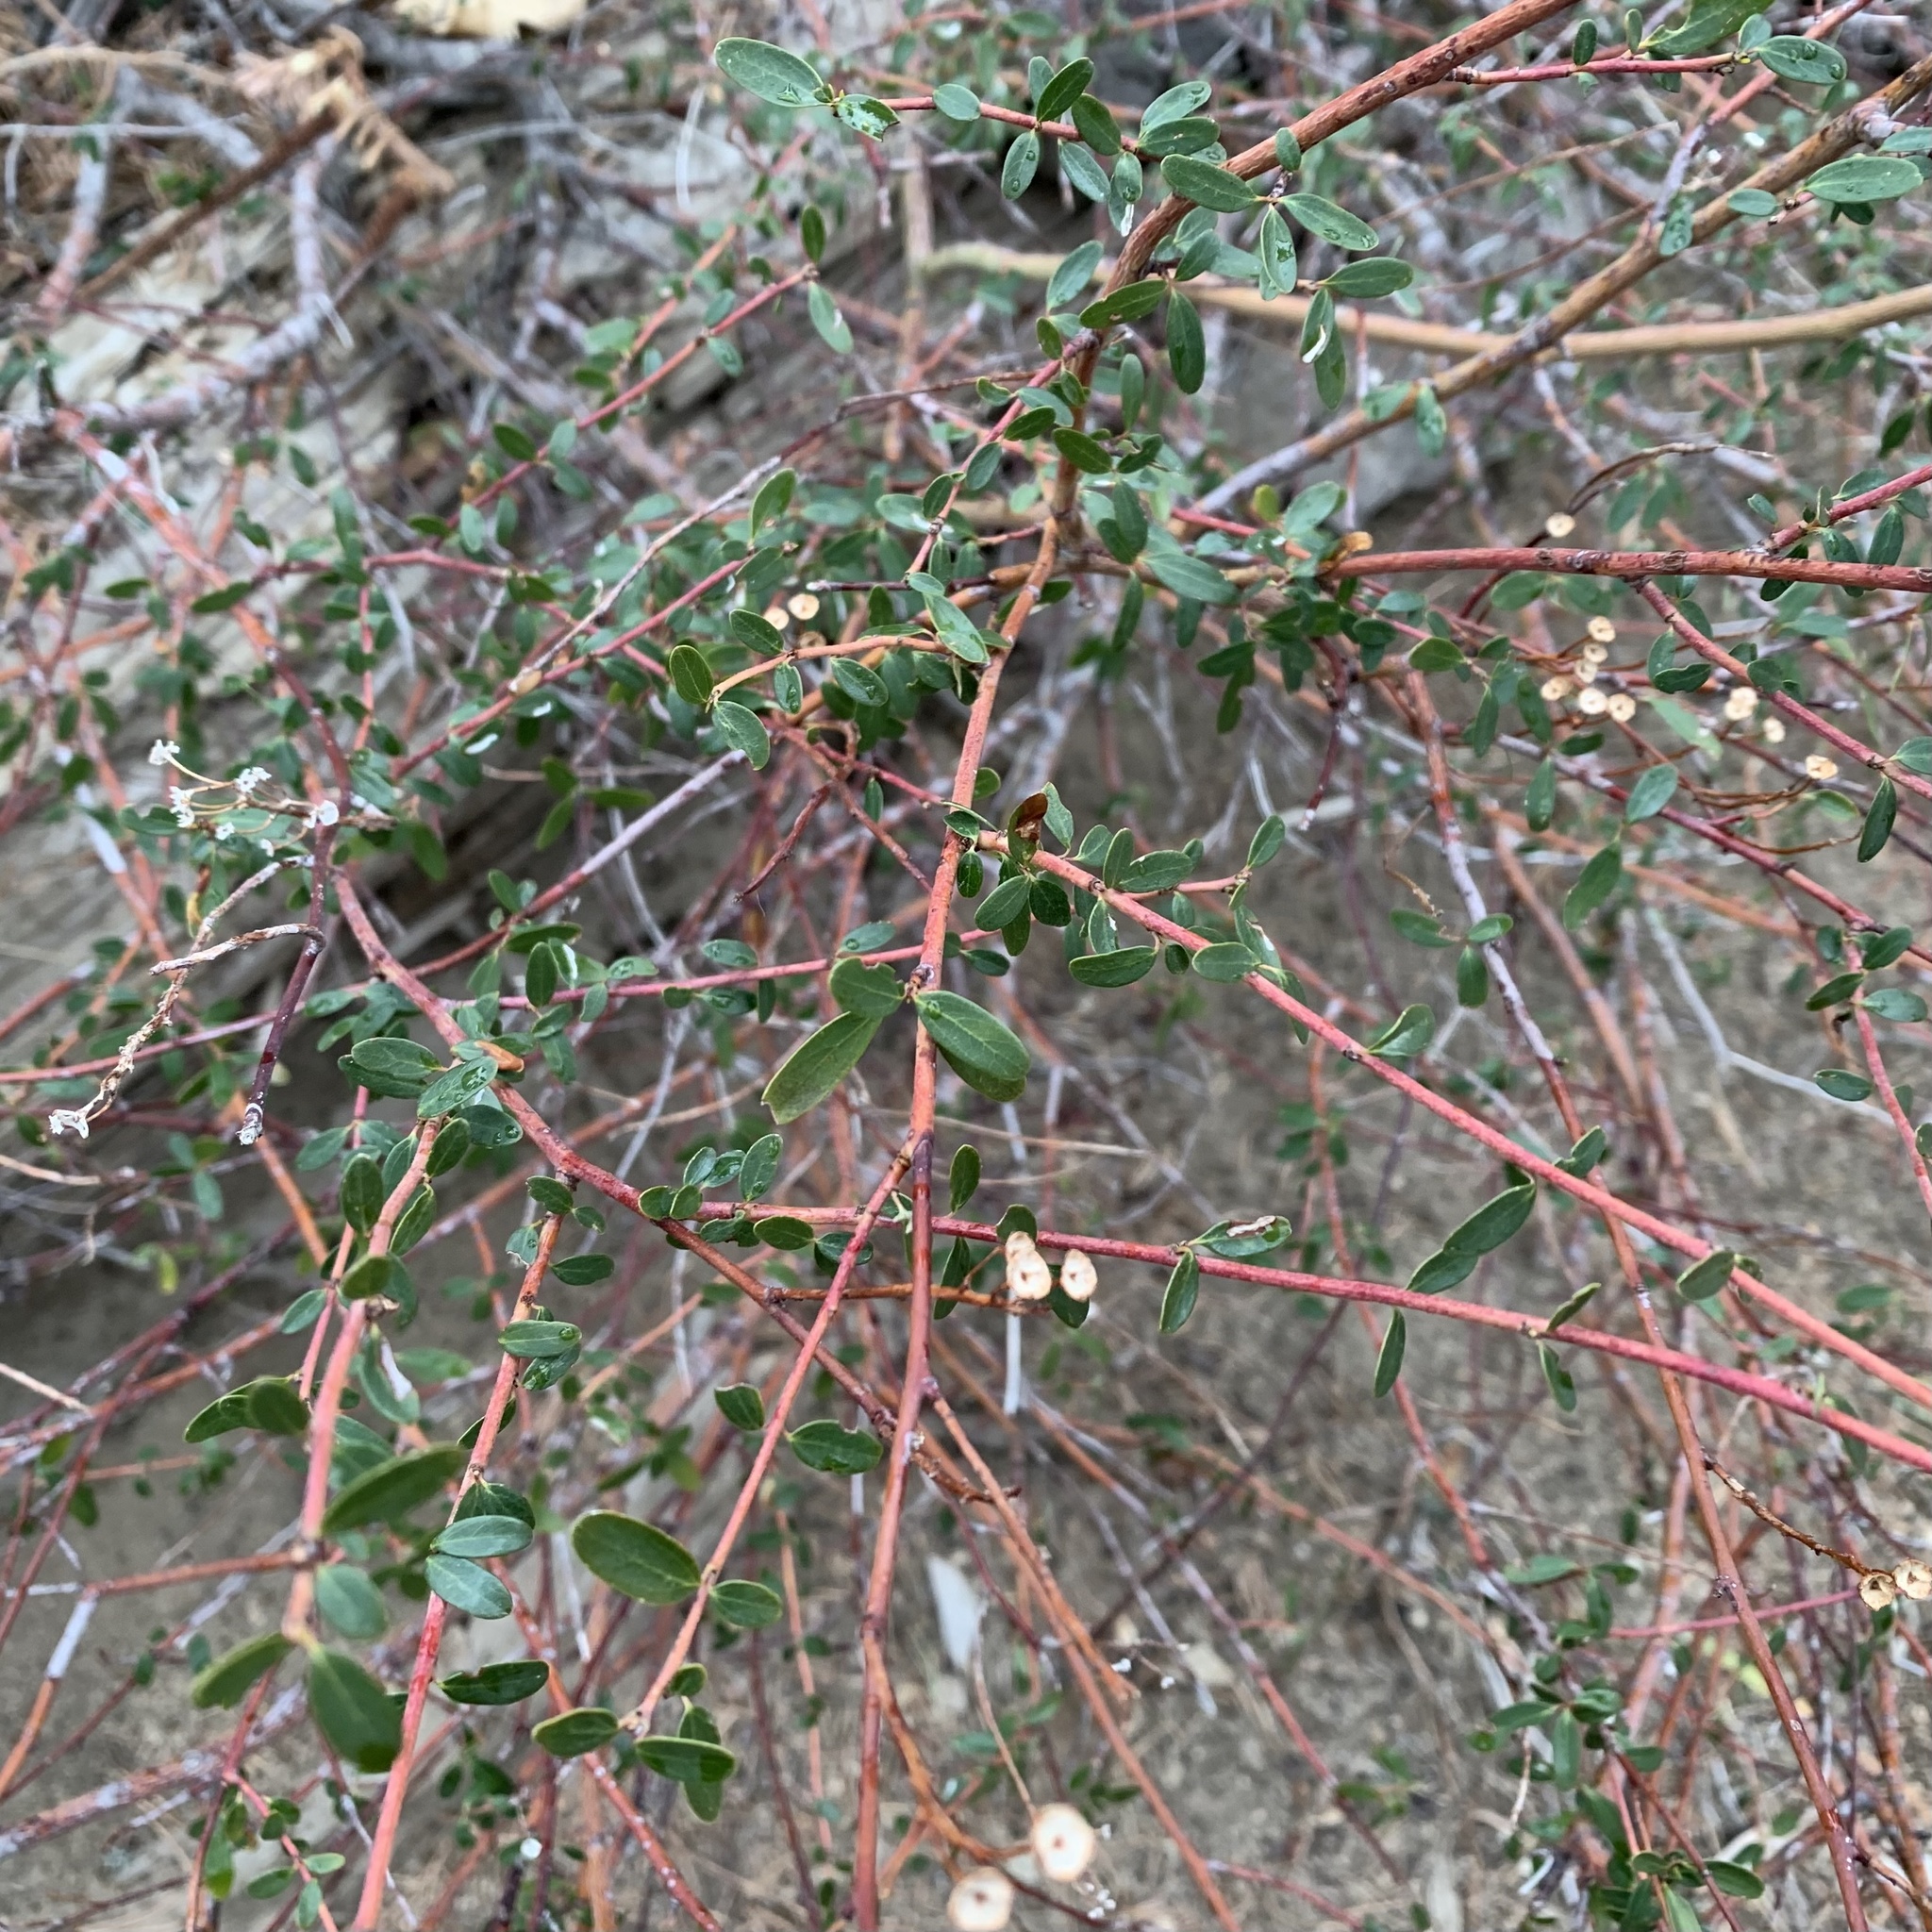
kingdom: Plantae
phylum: Tracheophyta
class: Magnoliopsida
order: Rosales
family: Rhamnaceae
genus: Ceanothus
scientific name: Ceanothus parvifolius
